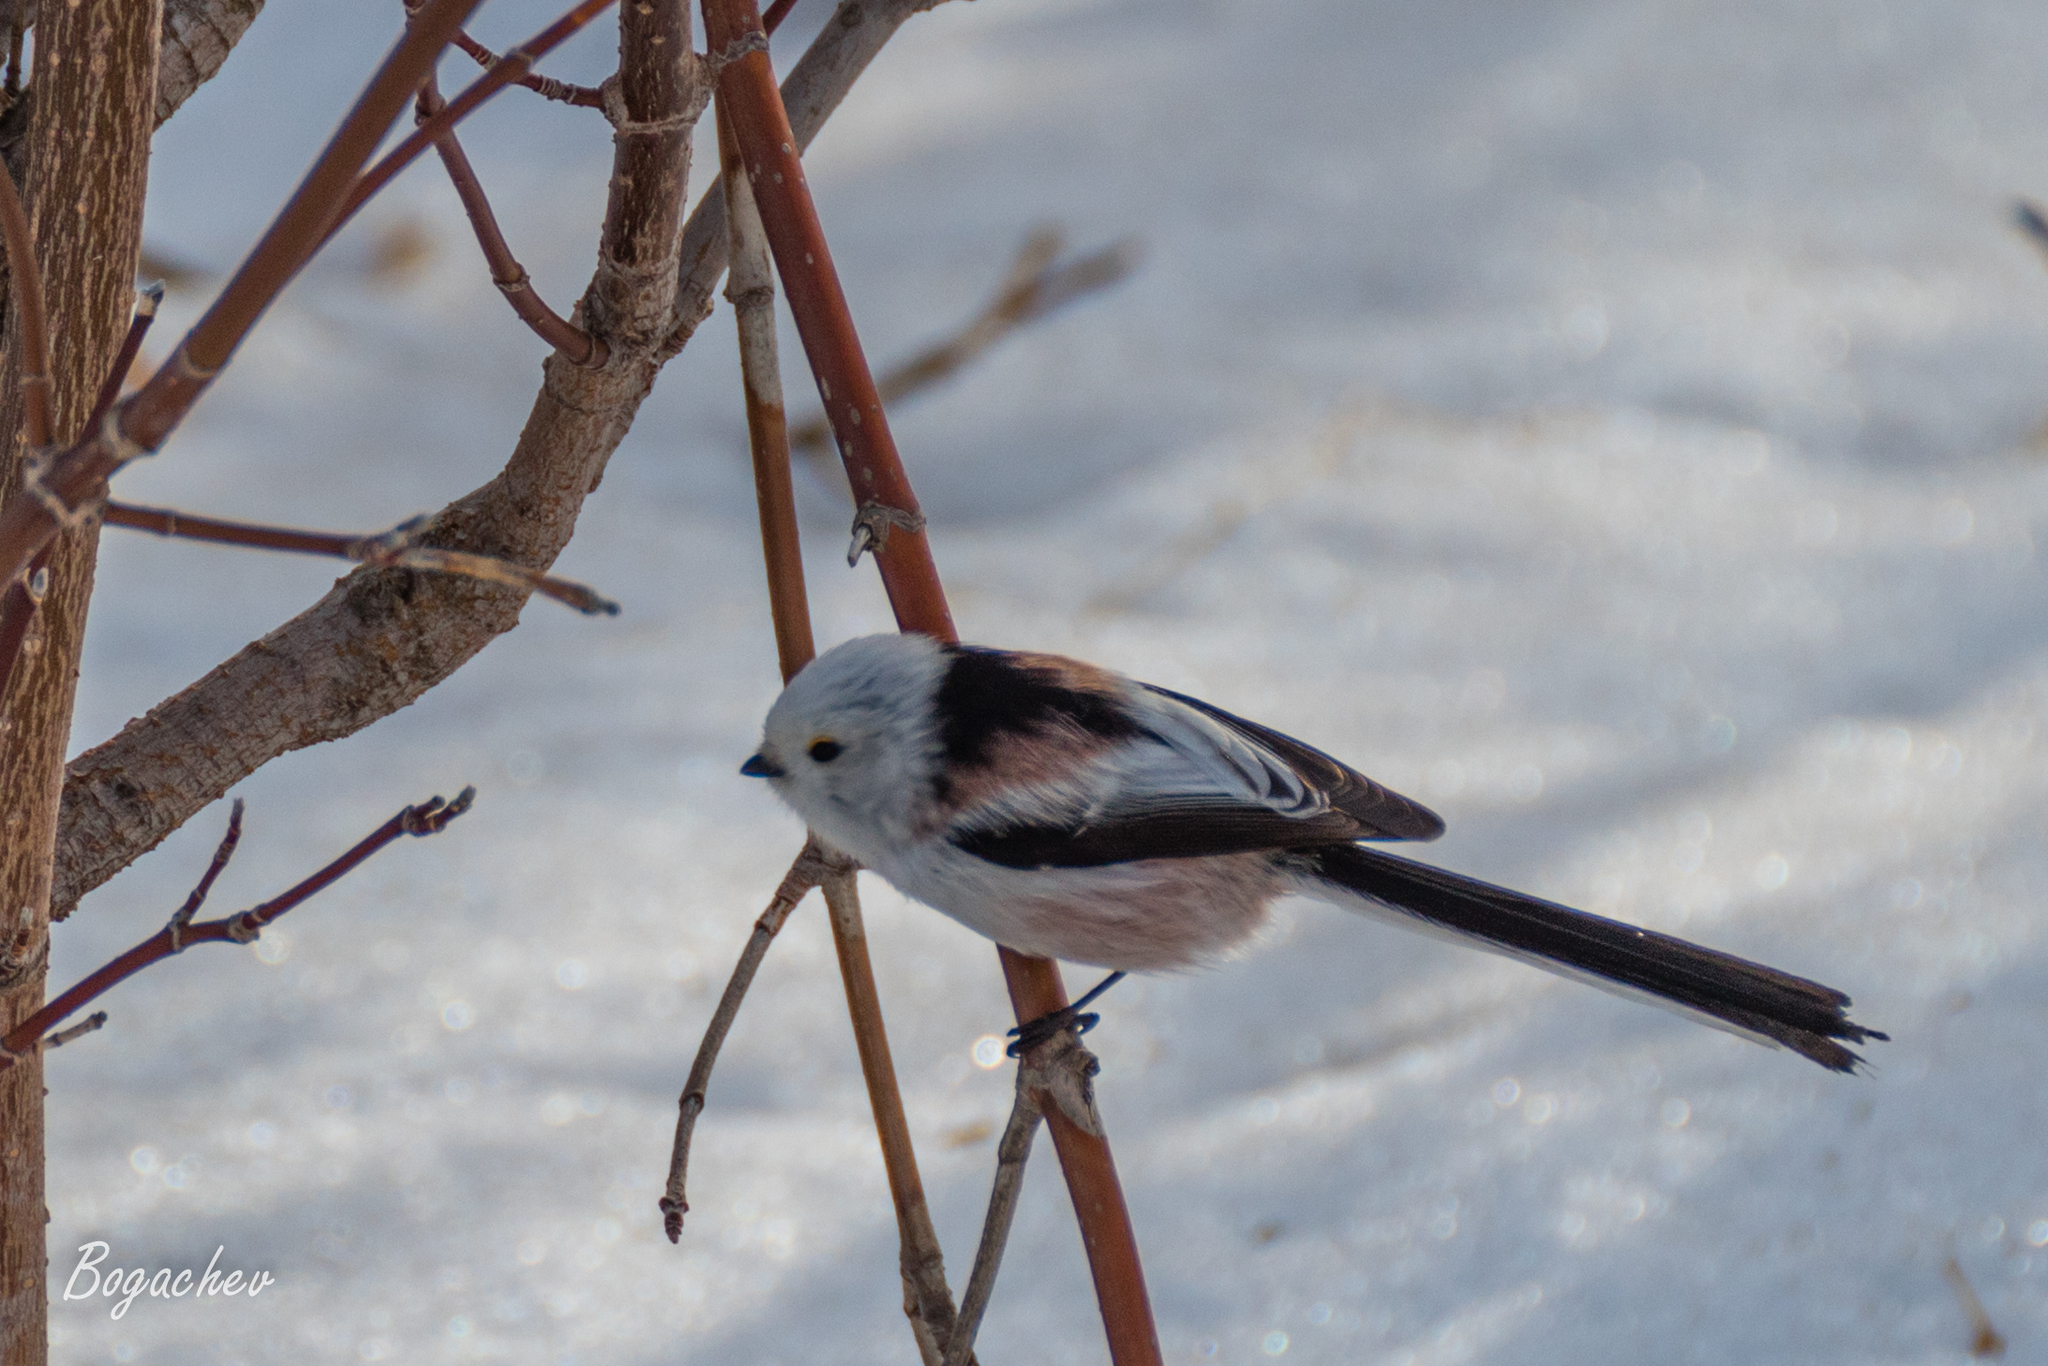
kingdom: Animalia
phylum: Chordata
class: Aves
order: Passeriformes
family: Aegithalidae
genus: Aegithalos
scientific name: Aegithalos caudatus
